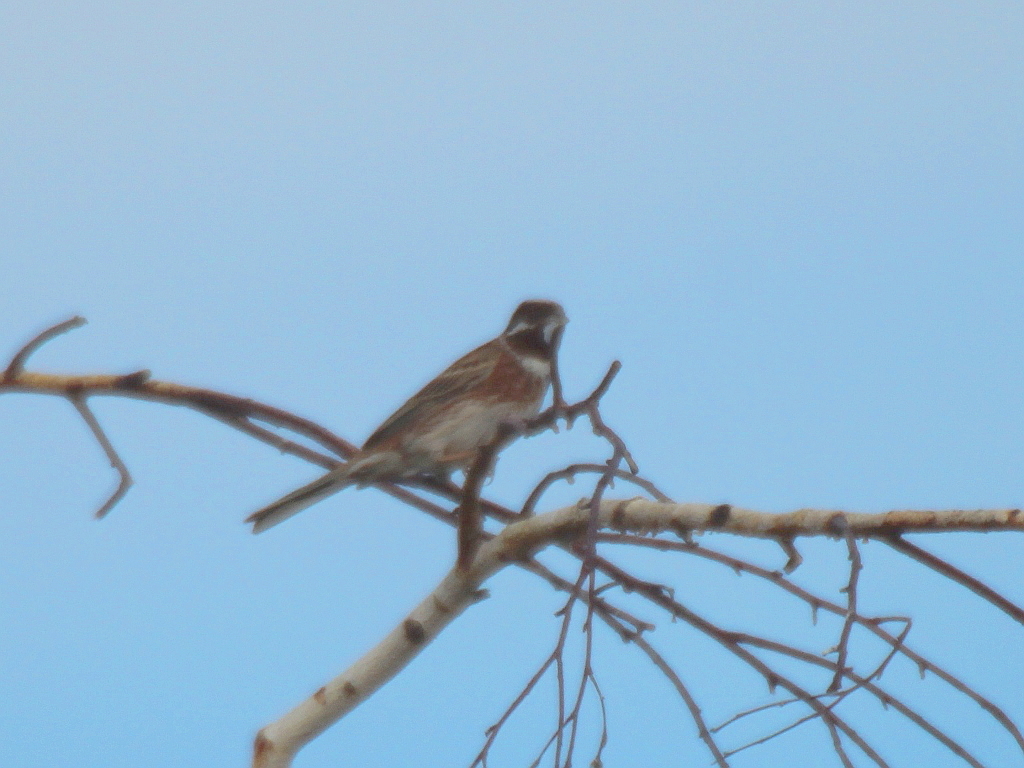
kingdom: Animalia
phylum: Chordata
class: Aves
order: Passeriformes
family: Emberizidae
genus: Emberiza
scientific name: Emberiza leucocephalos
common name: Pine bunting
